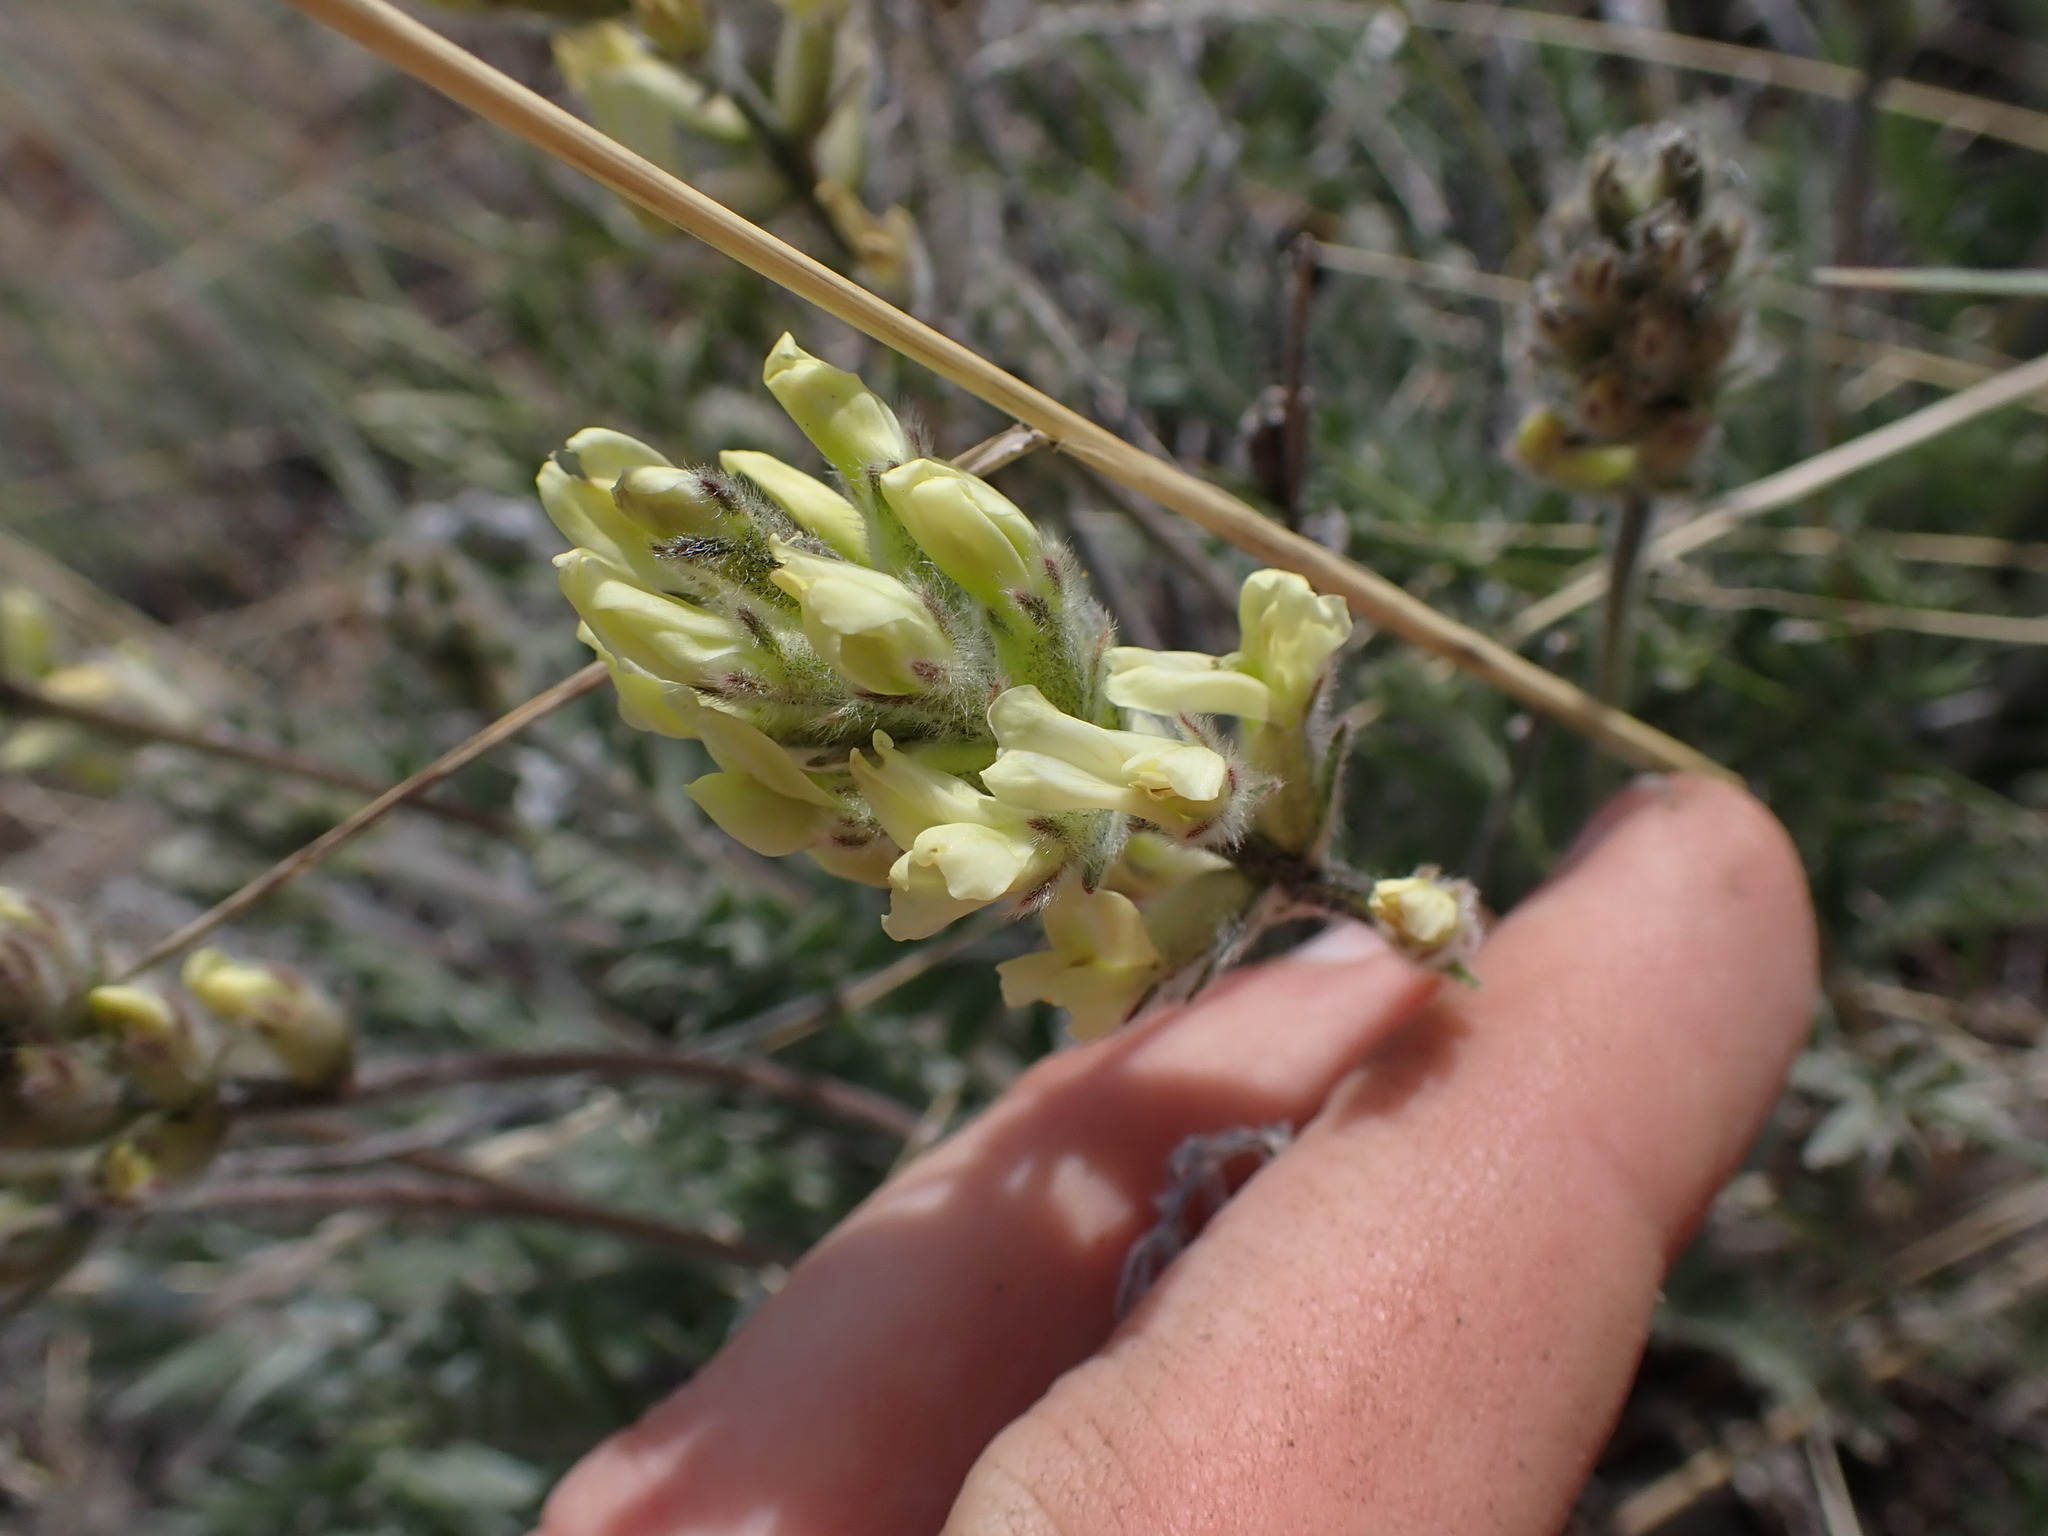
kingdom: Plantae
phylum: Tracheophyta
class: Magnoliopsida
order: Fabales
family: Fabaceae
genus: Oxytropis
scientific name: Oxytropis campestris
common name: Field locoweed
